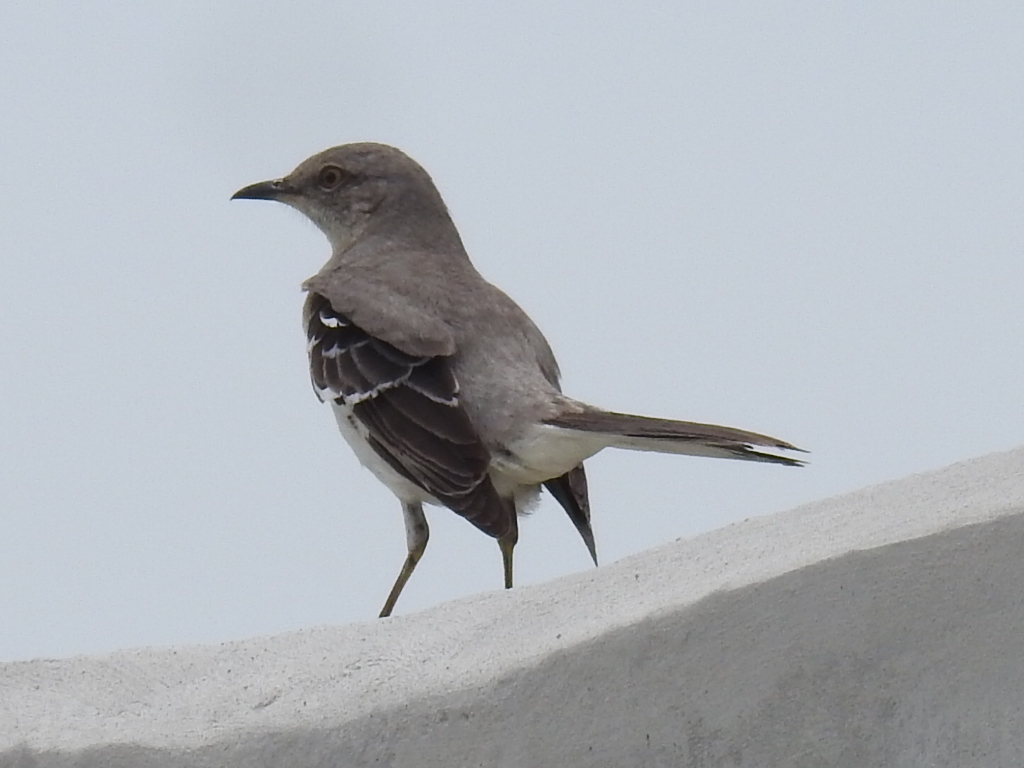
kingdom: Animalia
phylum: Chordata
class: Aves
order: Passeriformes
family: Mimidae
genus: Mimus
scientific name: Mimus polyglottos
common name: Northern mockingbird
